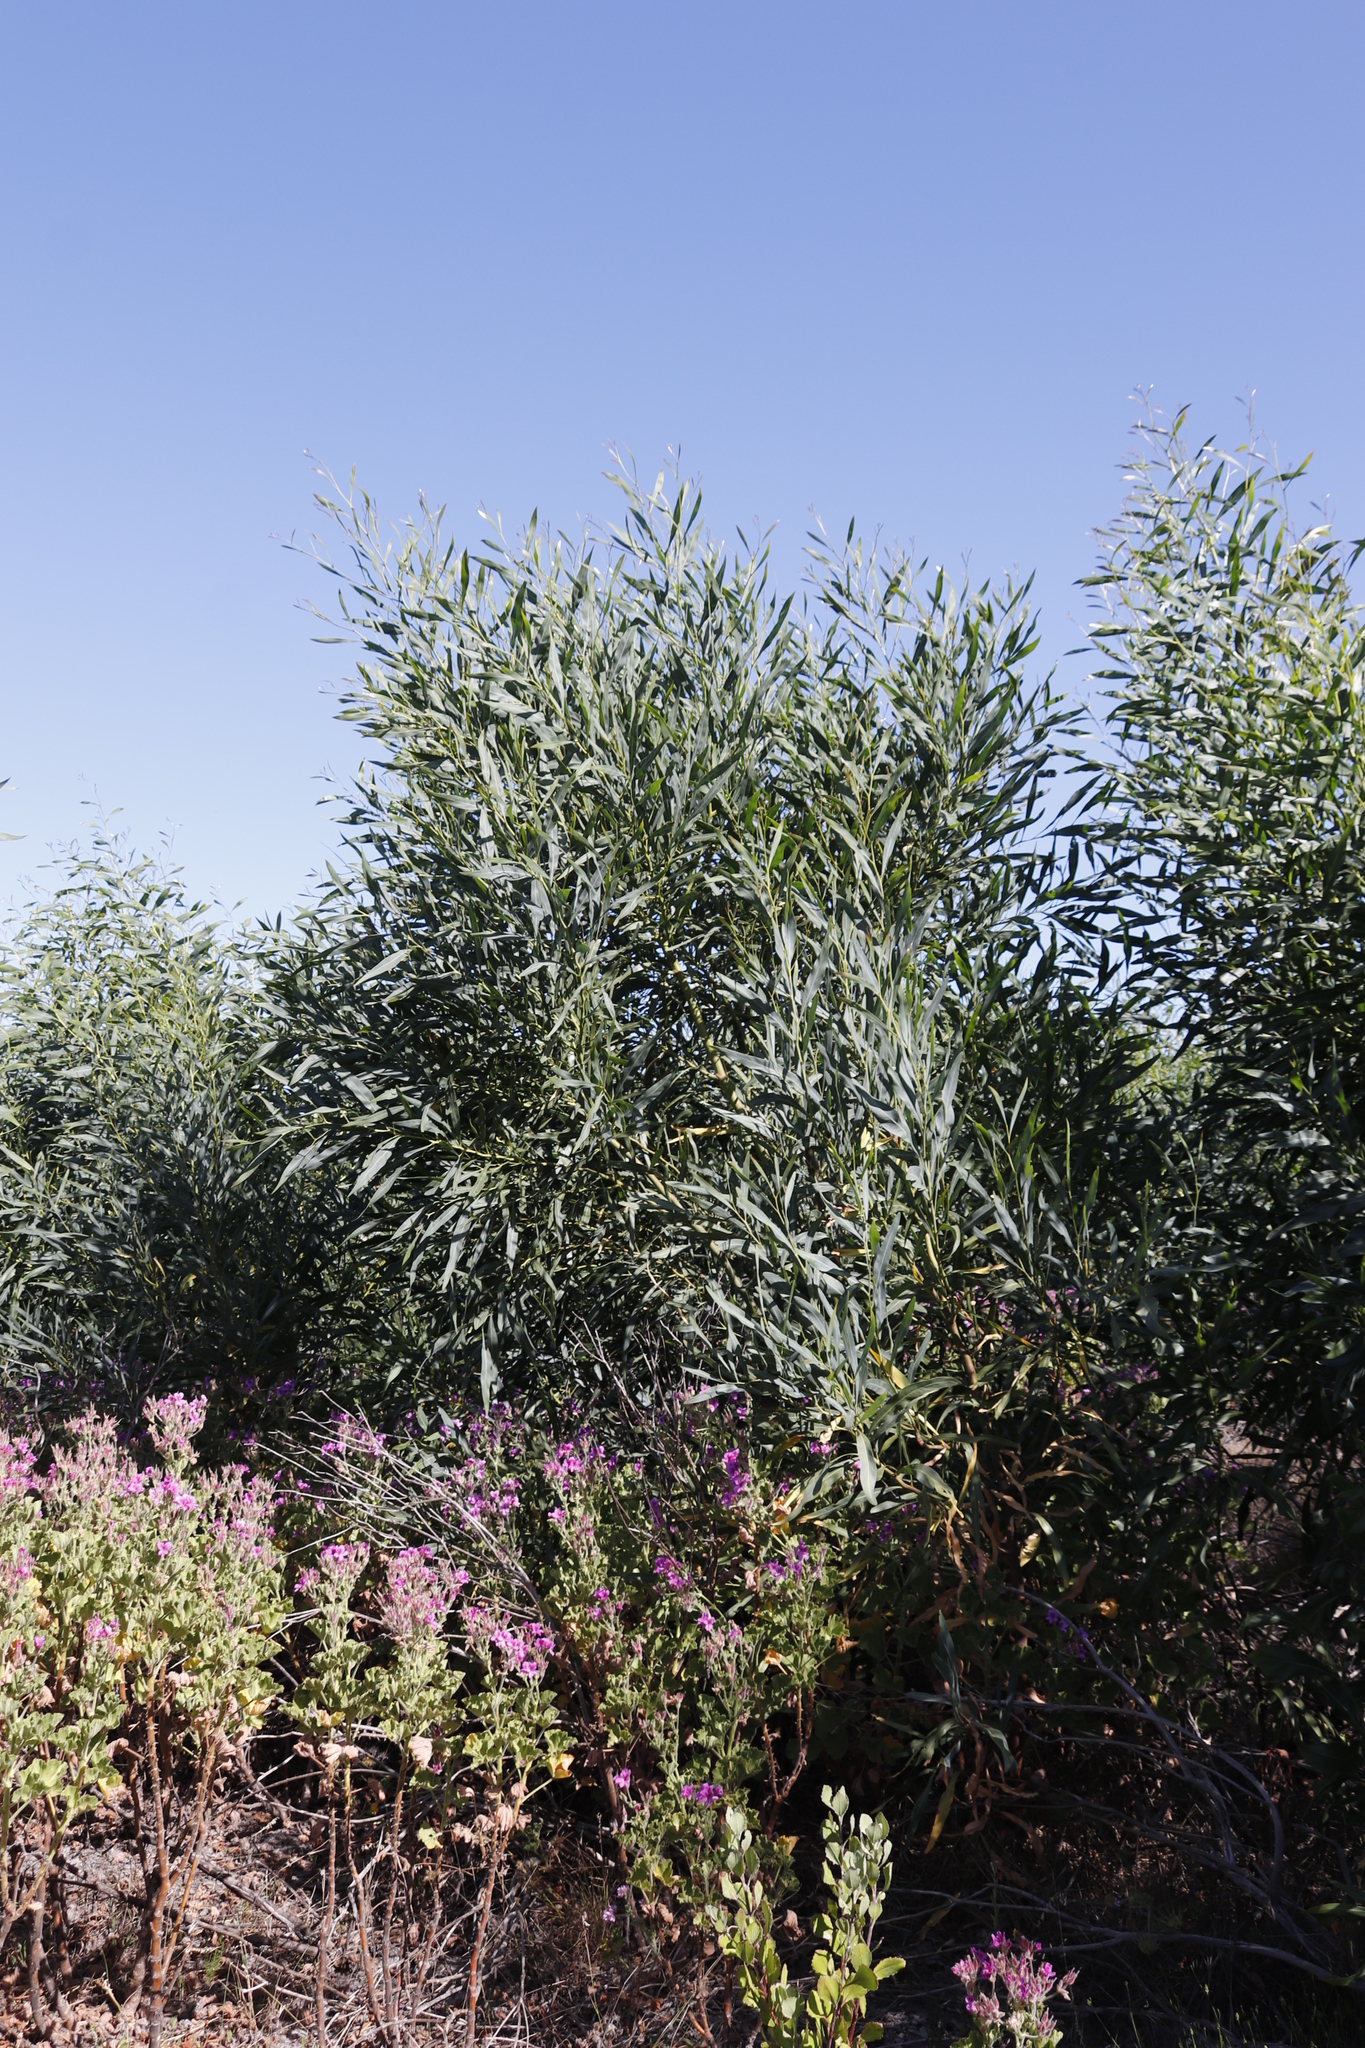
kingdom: Plantae
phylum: Tracheophyta
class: Magnoliopsida
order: Geraniales
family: Geraniaceae
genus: Pelargonium
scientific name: Pelargonium cucullatum
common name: Tree pelargonium
